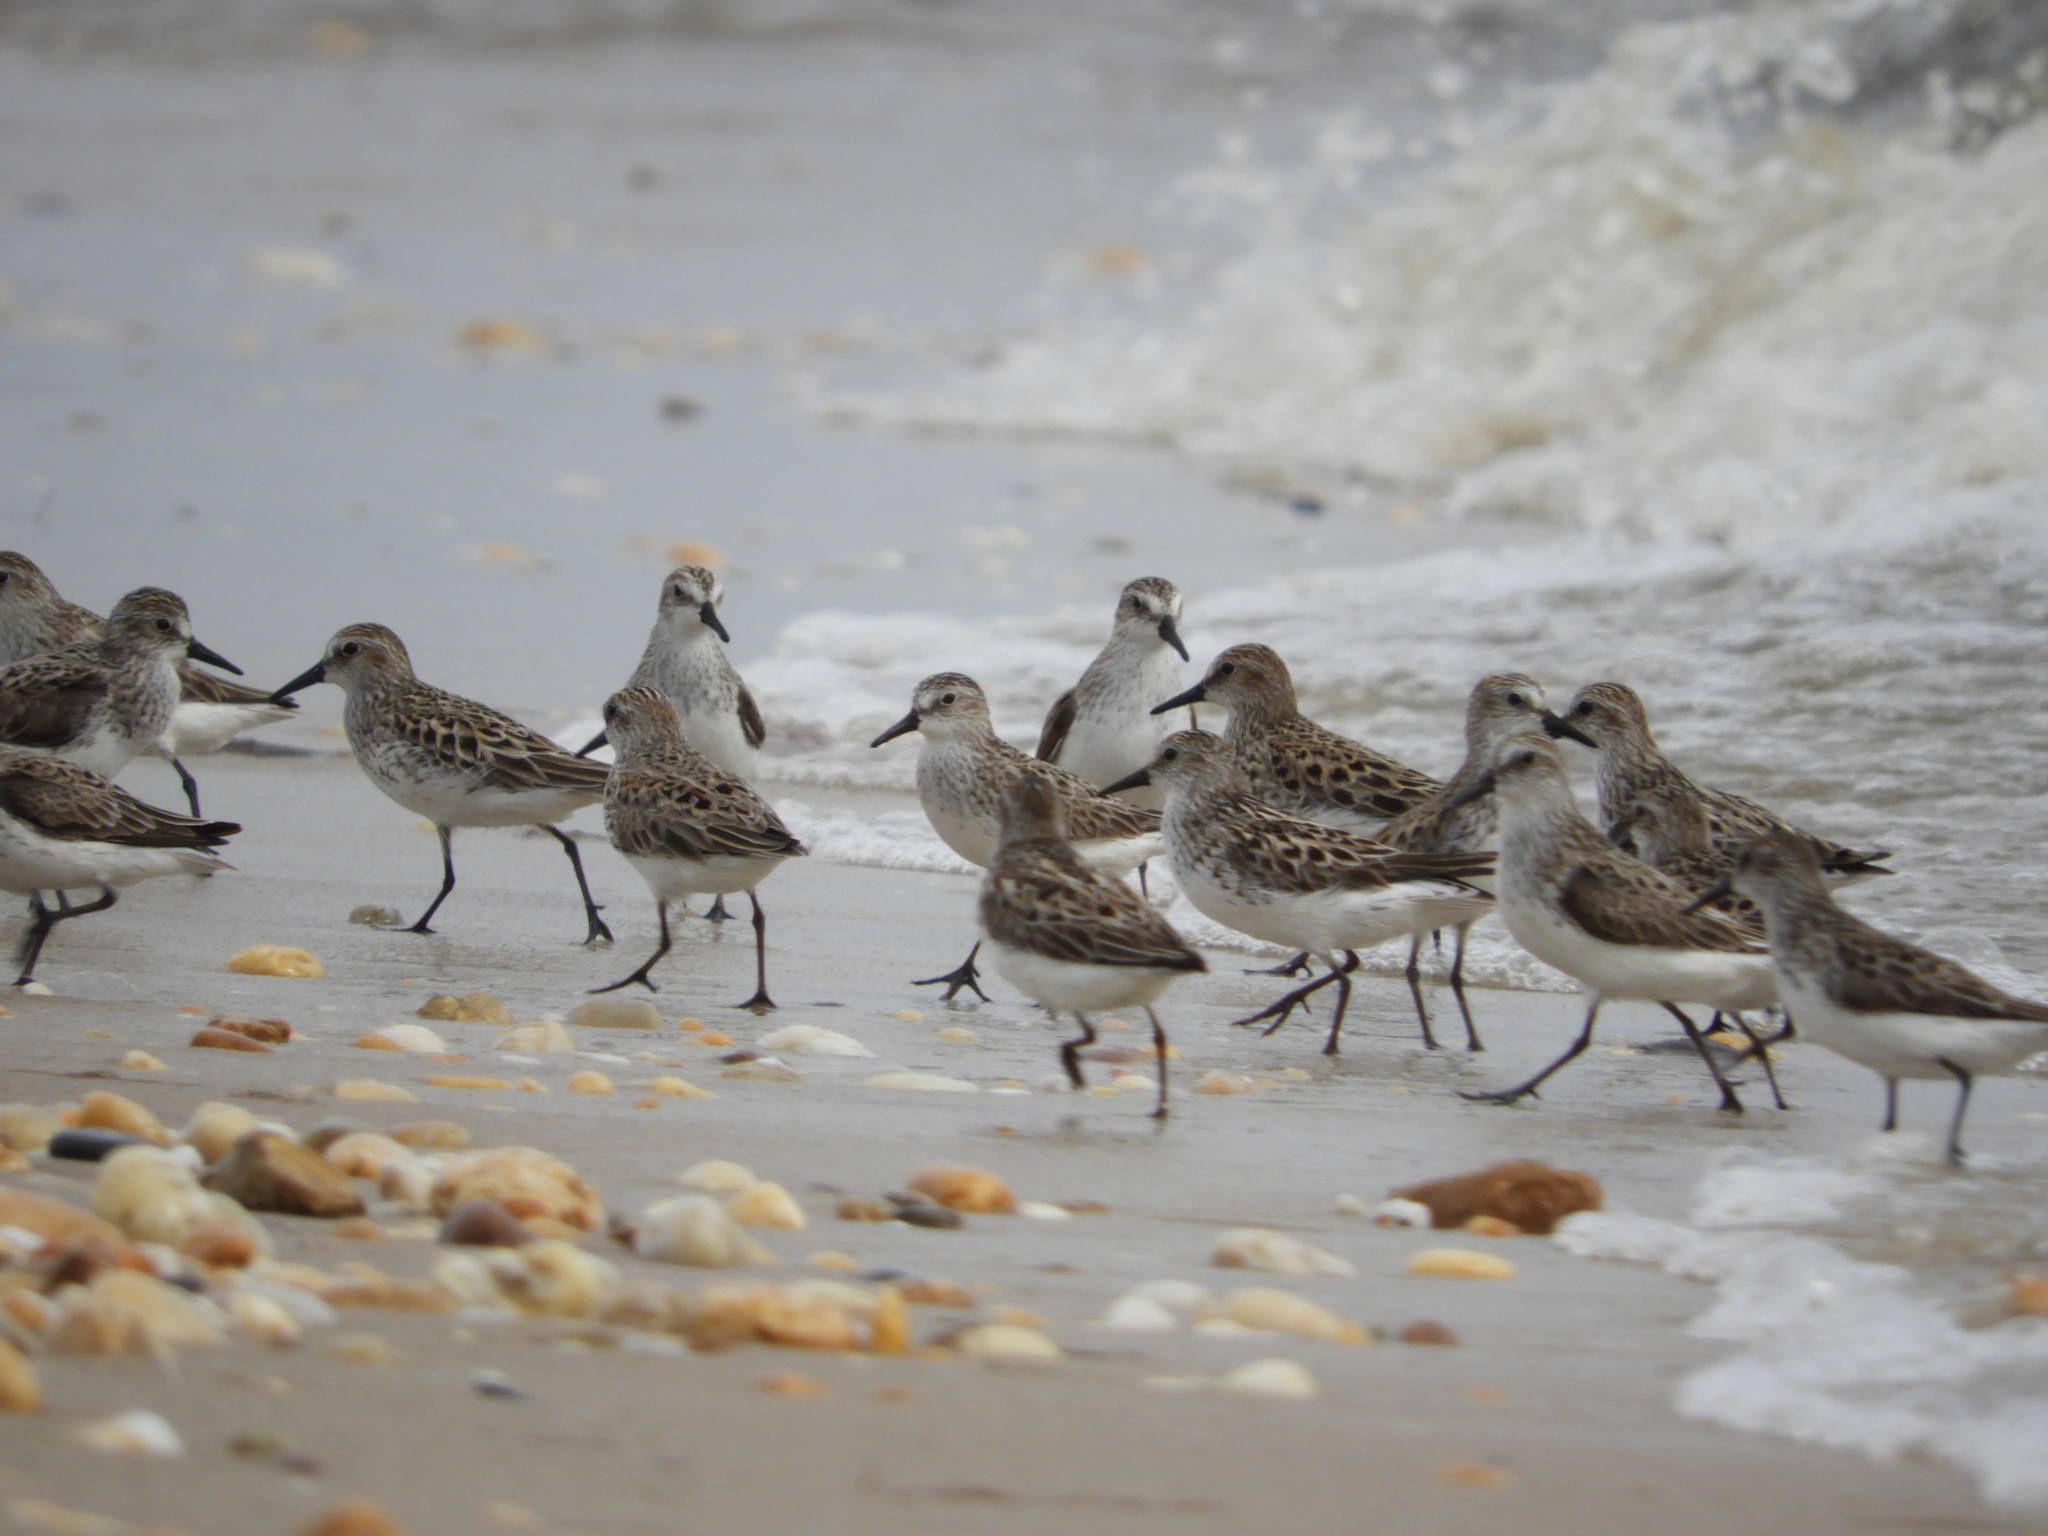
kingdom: Animalia
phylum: Chordata
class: Aves
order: Charadriiformes
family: Scolopacidae
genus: Calidris
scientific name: Calidris pusilla
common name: Semipalmated sandpiper
